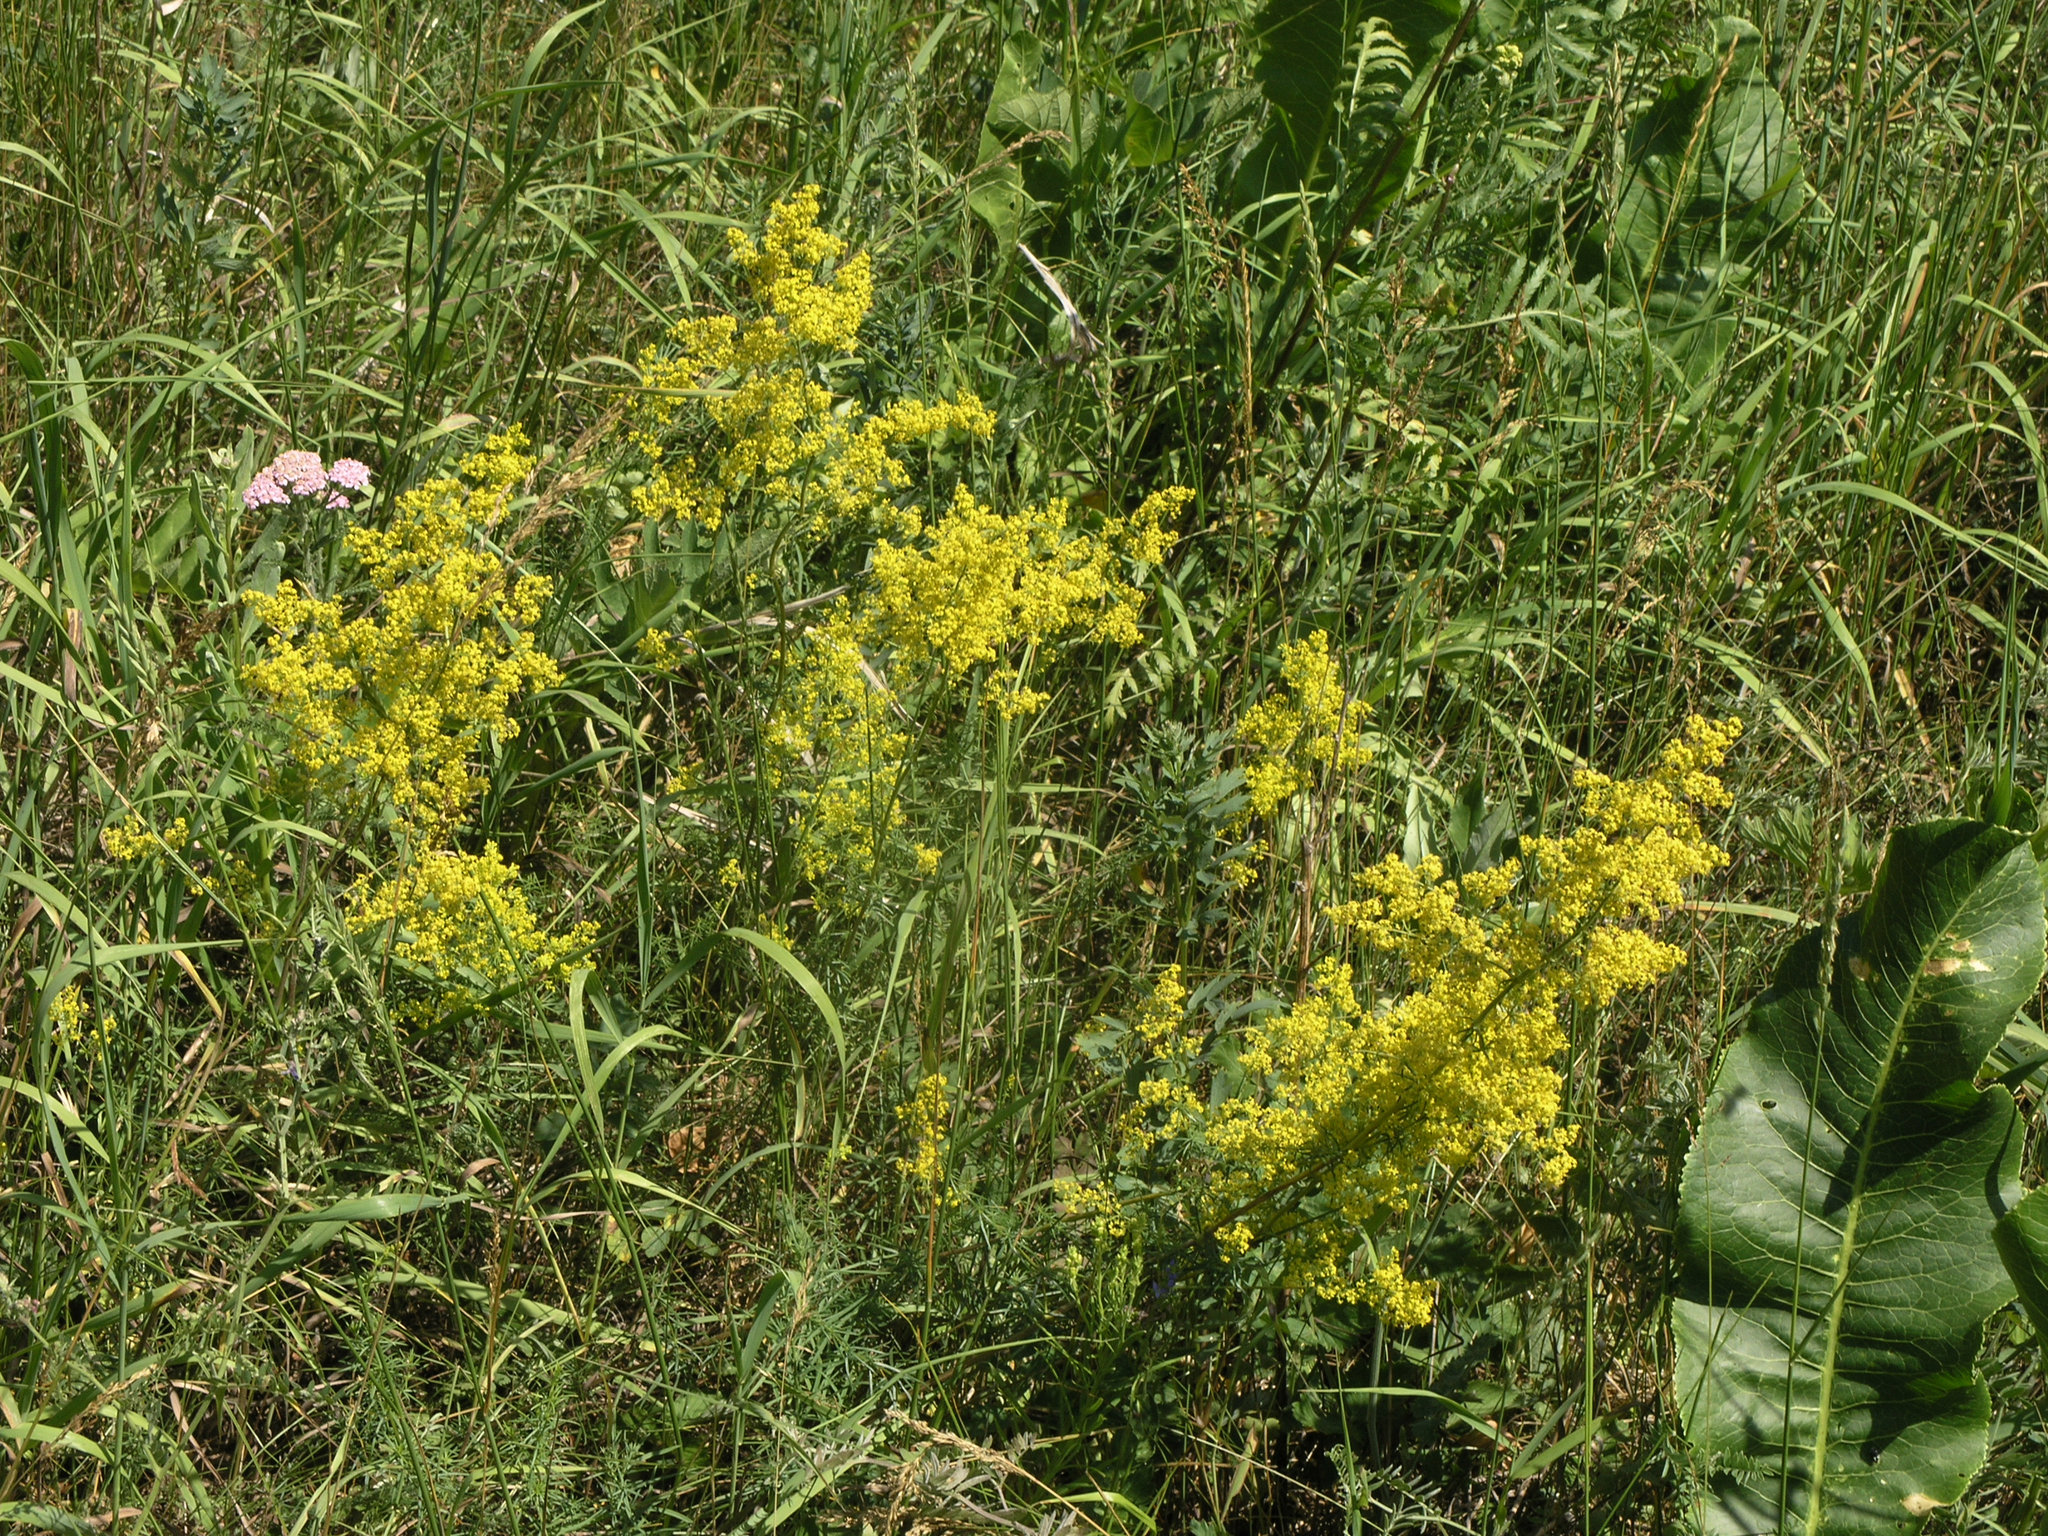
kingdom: Plantae
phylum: Tracheophyta
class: Magnoliopsida
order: Gentianales
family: Rubiaceae
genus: Galium
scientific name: Galium verum
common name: Lady's bedstraw
